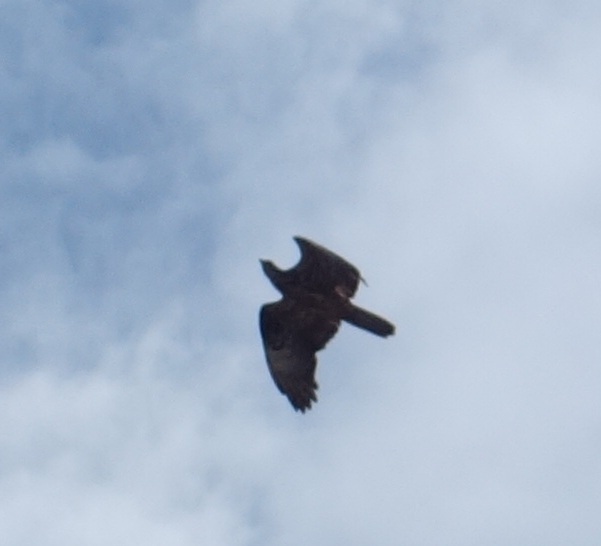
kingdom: Animalia
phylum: Chordata
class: Aves
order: Accipitriformes
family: Accipitridae
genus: Pernis
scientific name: Pernis apivorus
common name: European honey buzzard
